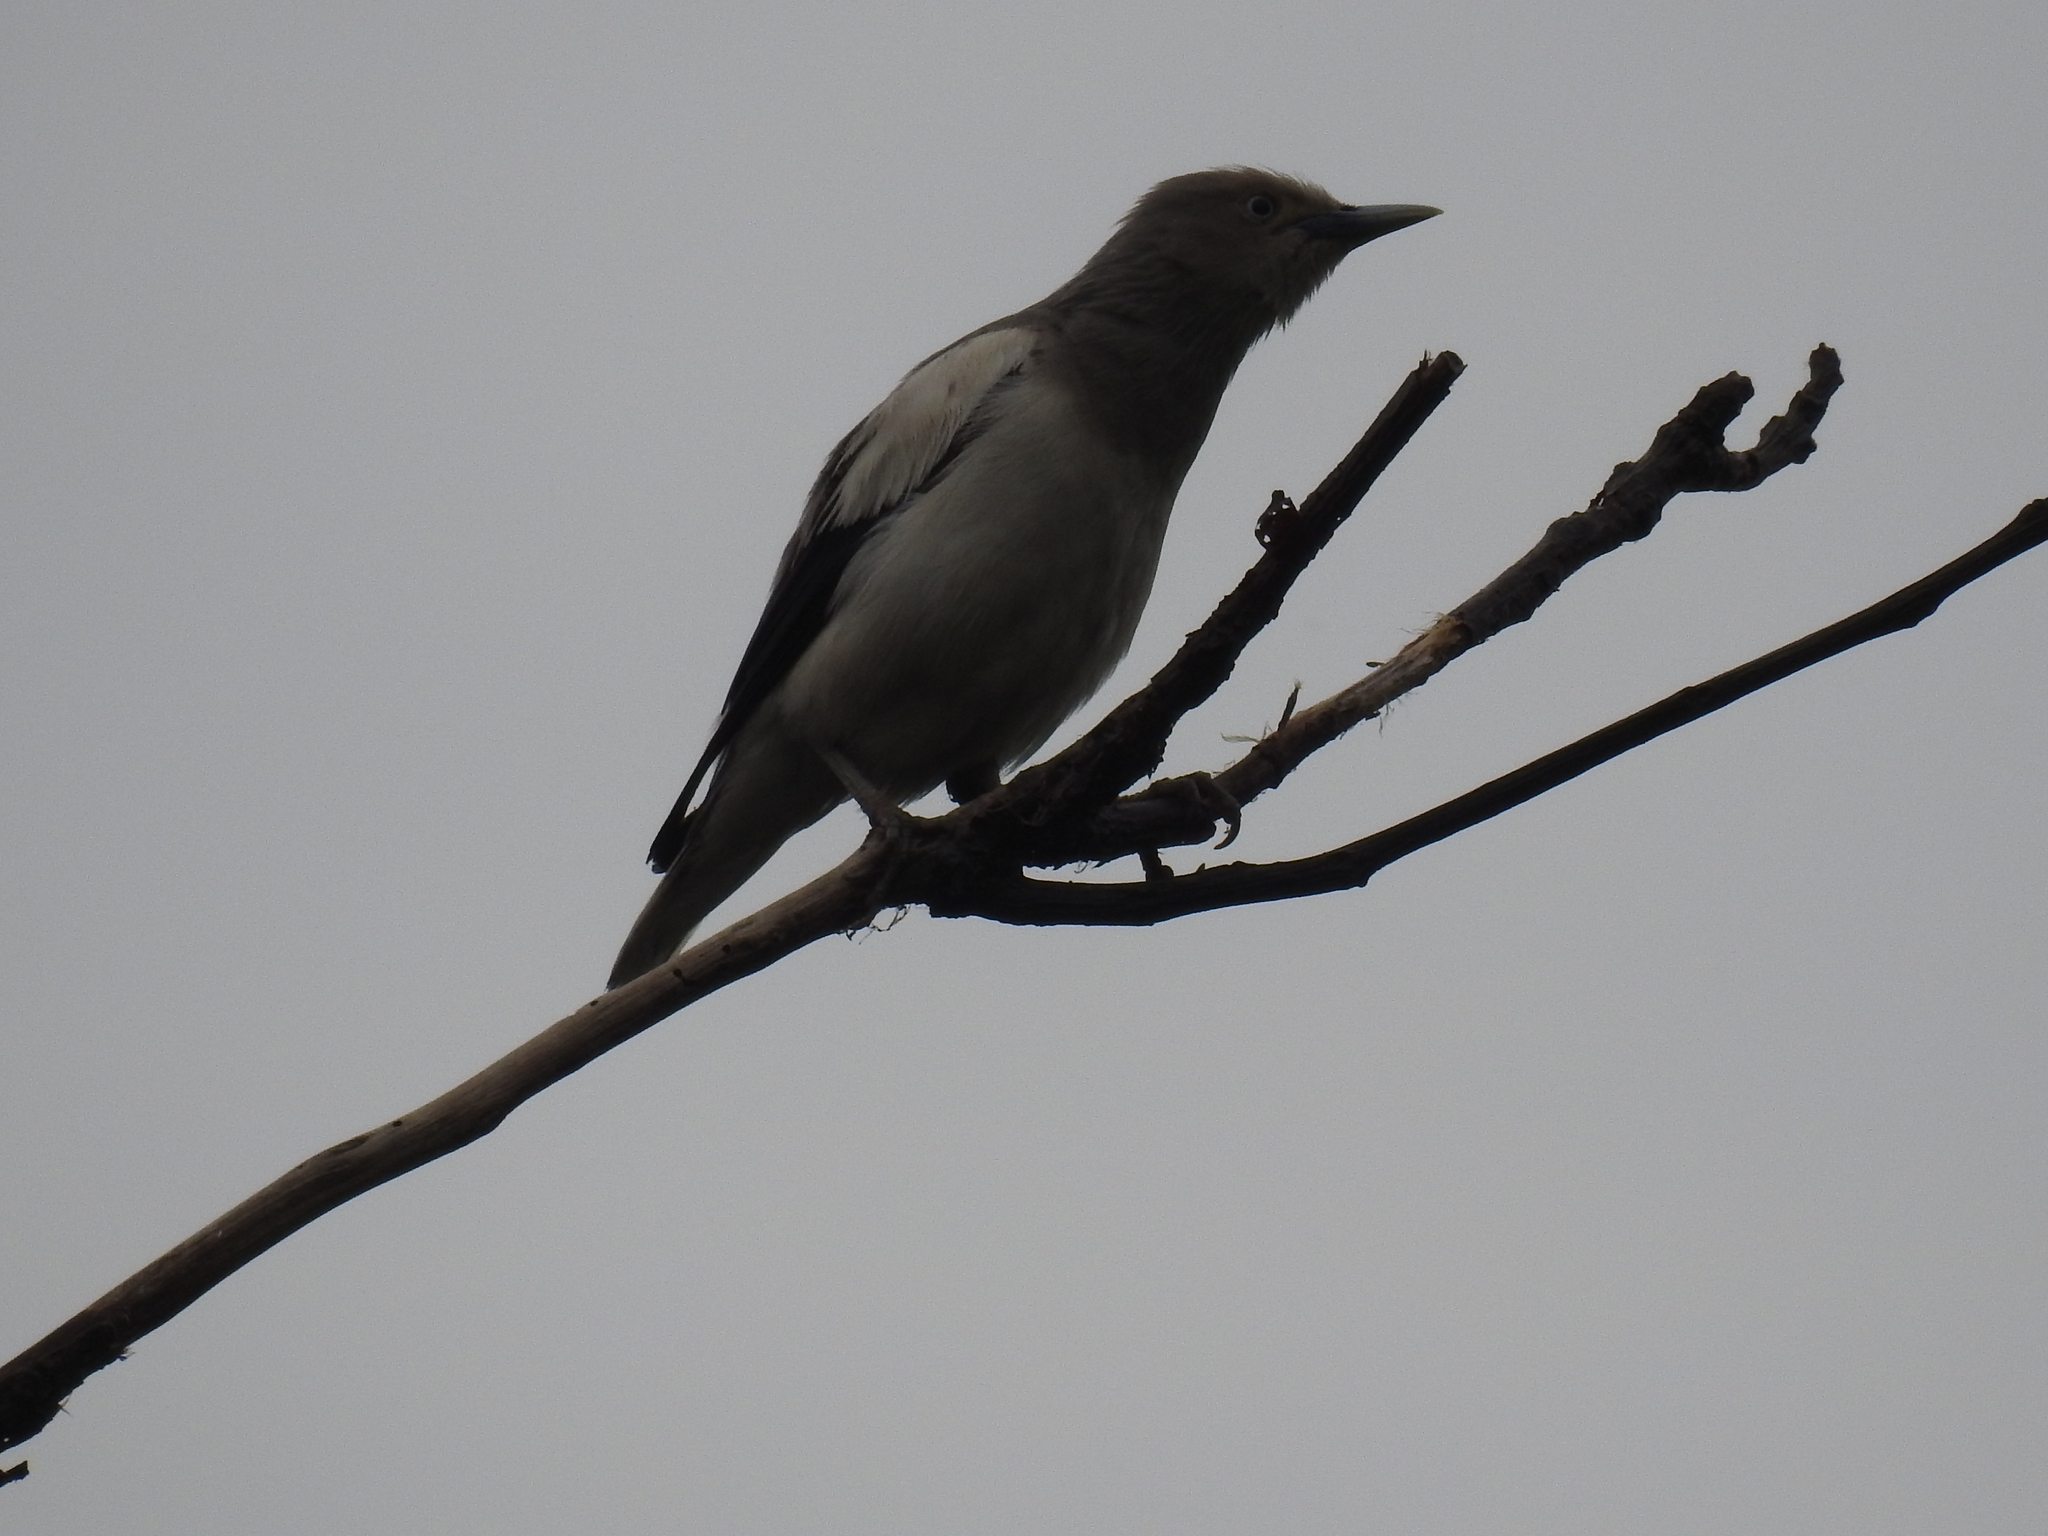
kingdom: Animalia
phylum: Chordata
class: Aves
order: Passeriformes
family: Sturnidae
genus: Sturnia
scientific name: Sturnia sinensis
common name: White-shouldered starling
